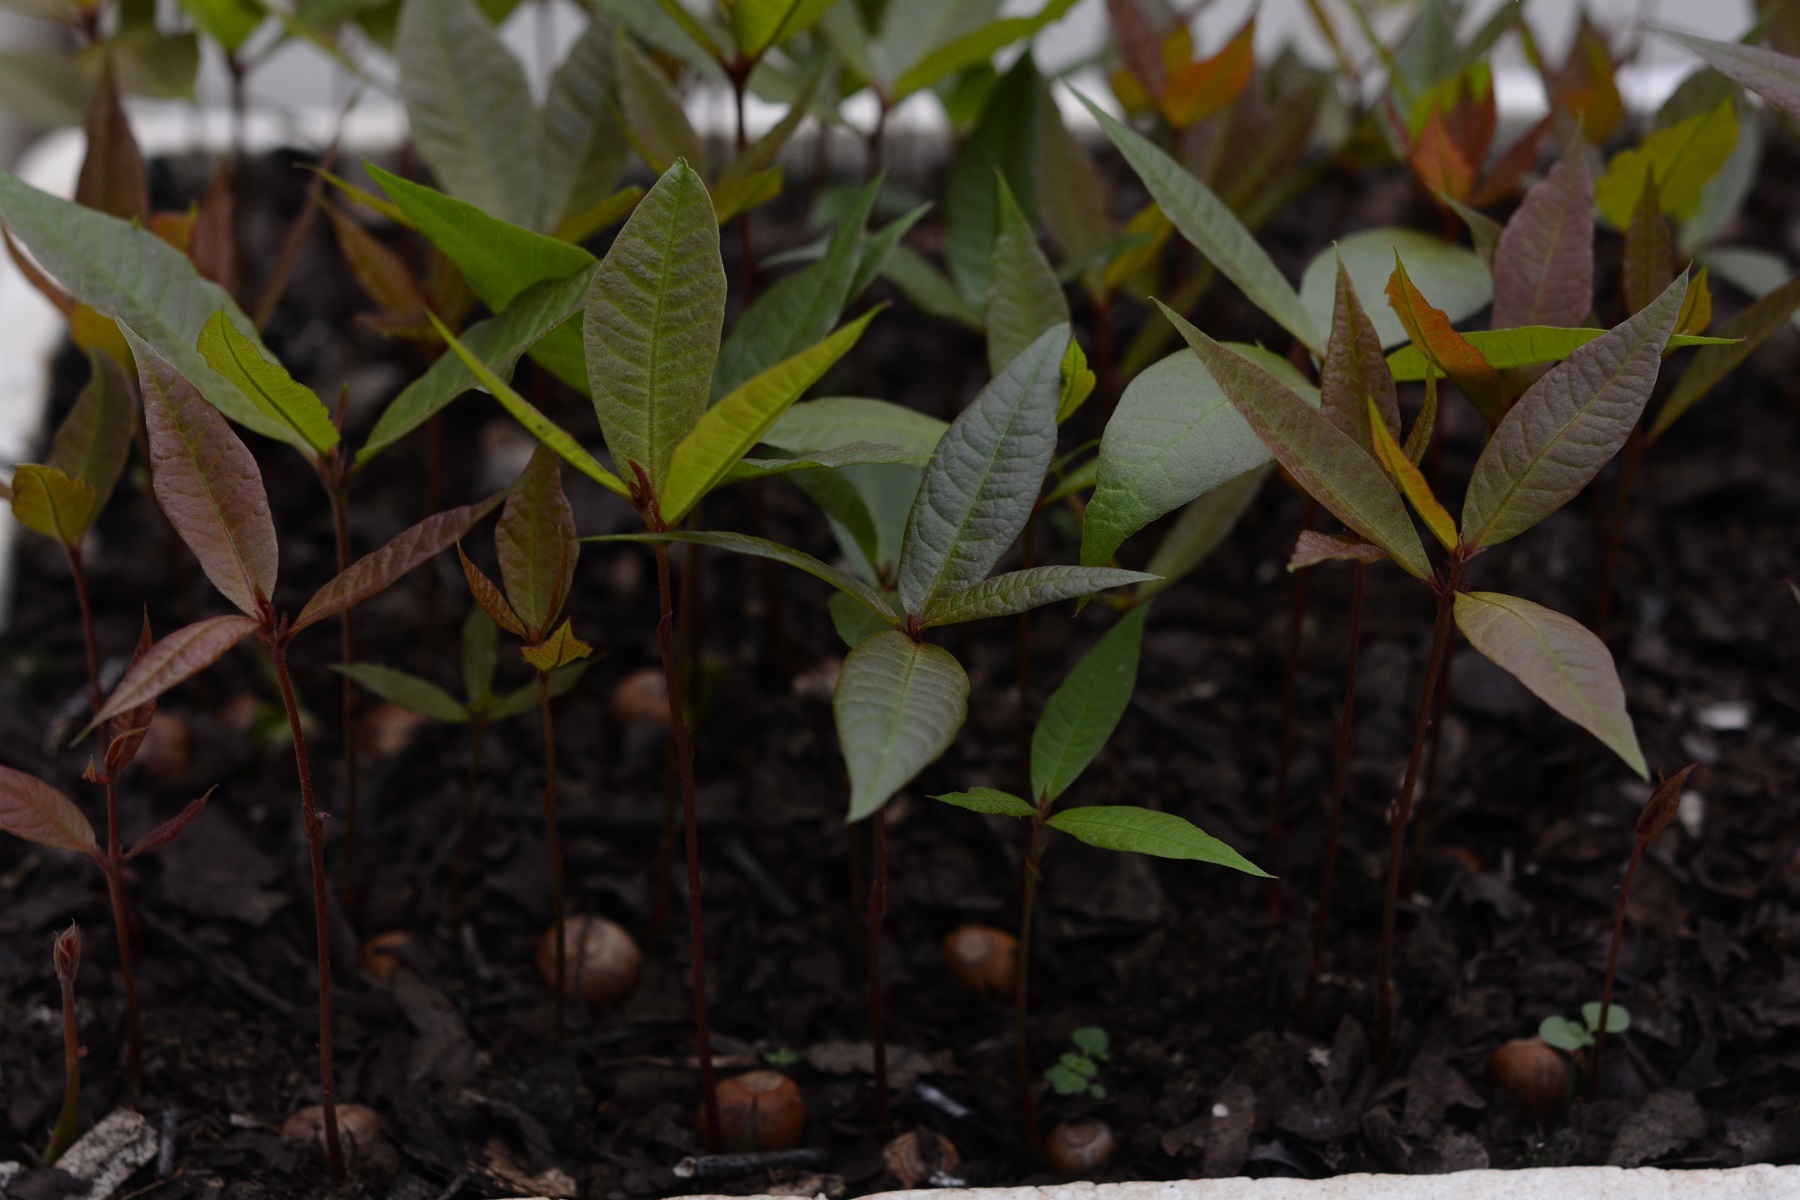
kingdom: Plantae
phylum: Tracheophyta
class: Magnoliopsida
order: Fagales
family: Fagaceae
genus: Quercus
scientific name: Quercus sapotifolia
